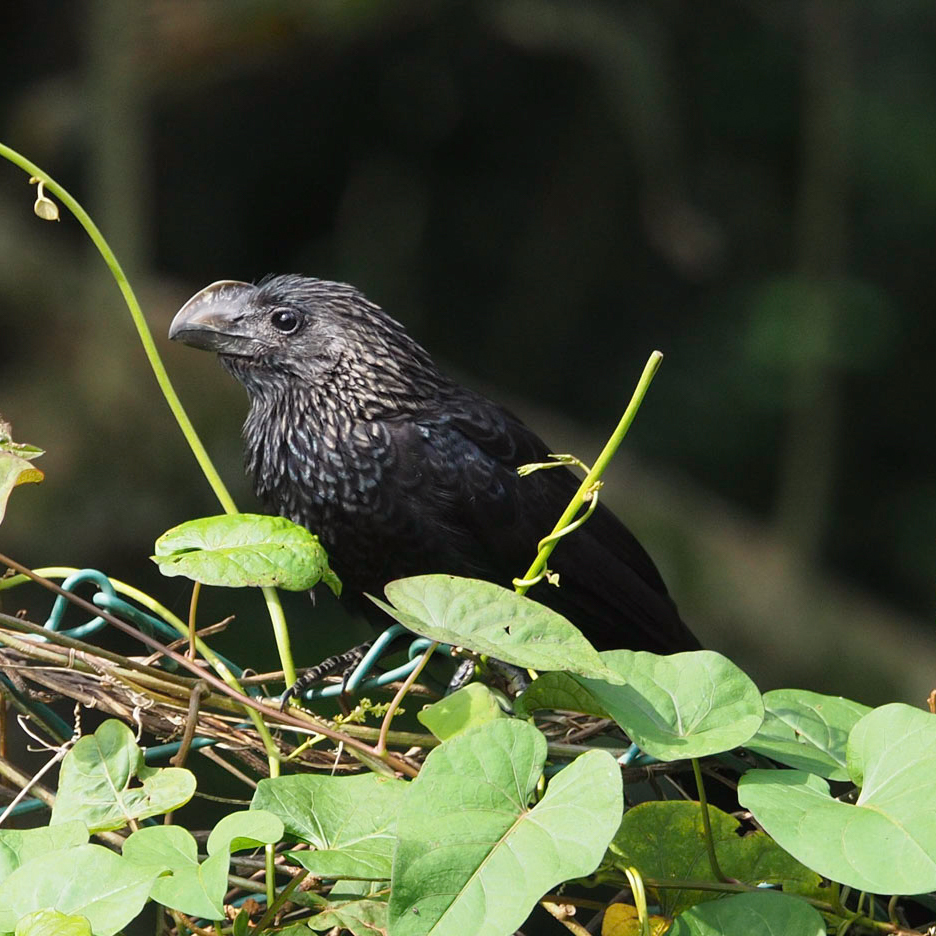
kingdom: Animalia
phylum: Chordata
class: Aves
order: Cuculiformes
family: Cuculidae
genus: Crotophaga
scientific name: Crotophaga ani
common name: Smooth-billed ani
